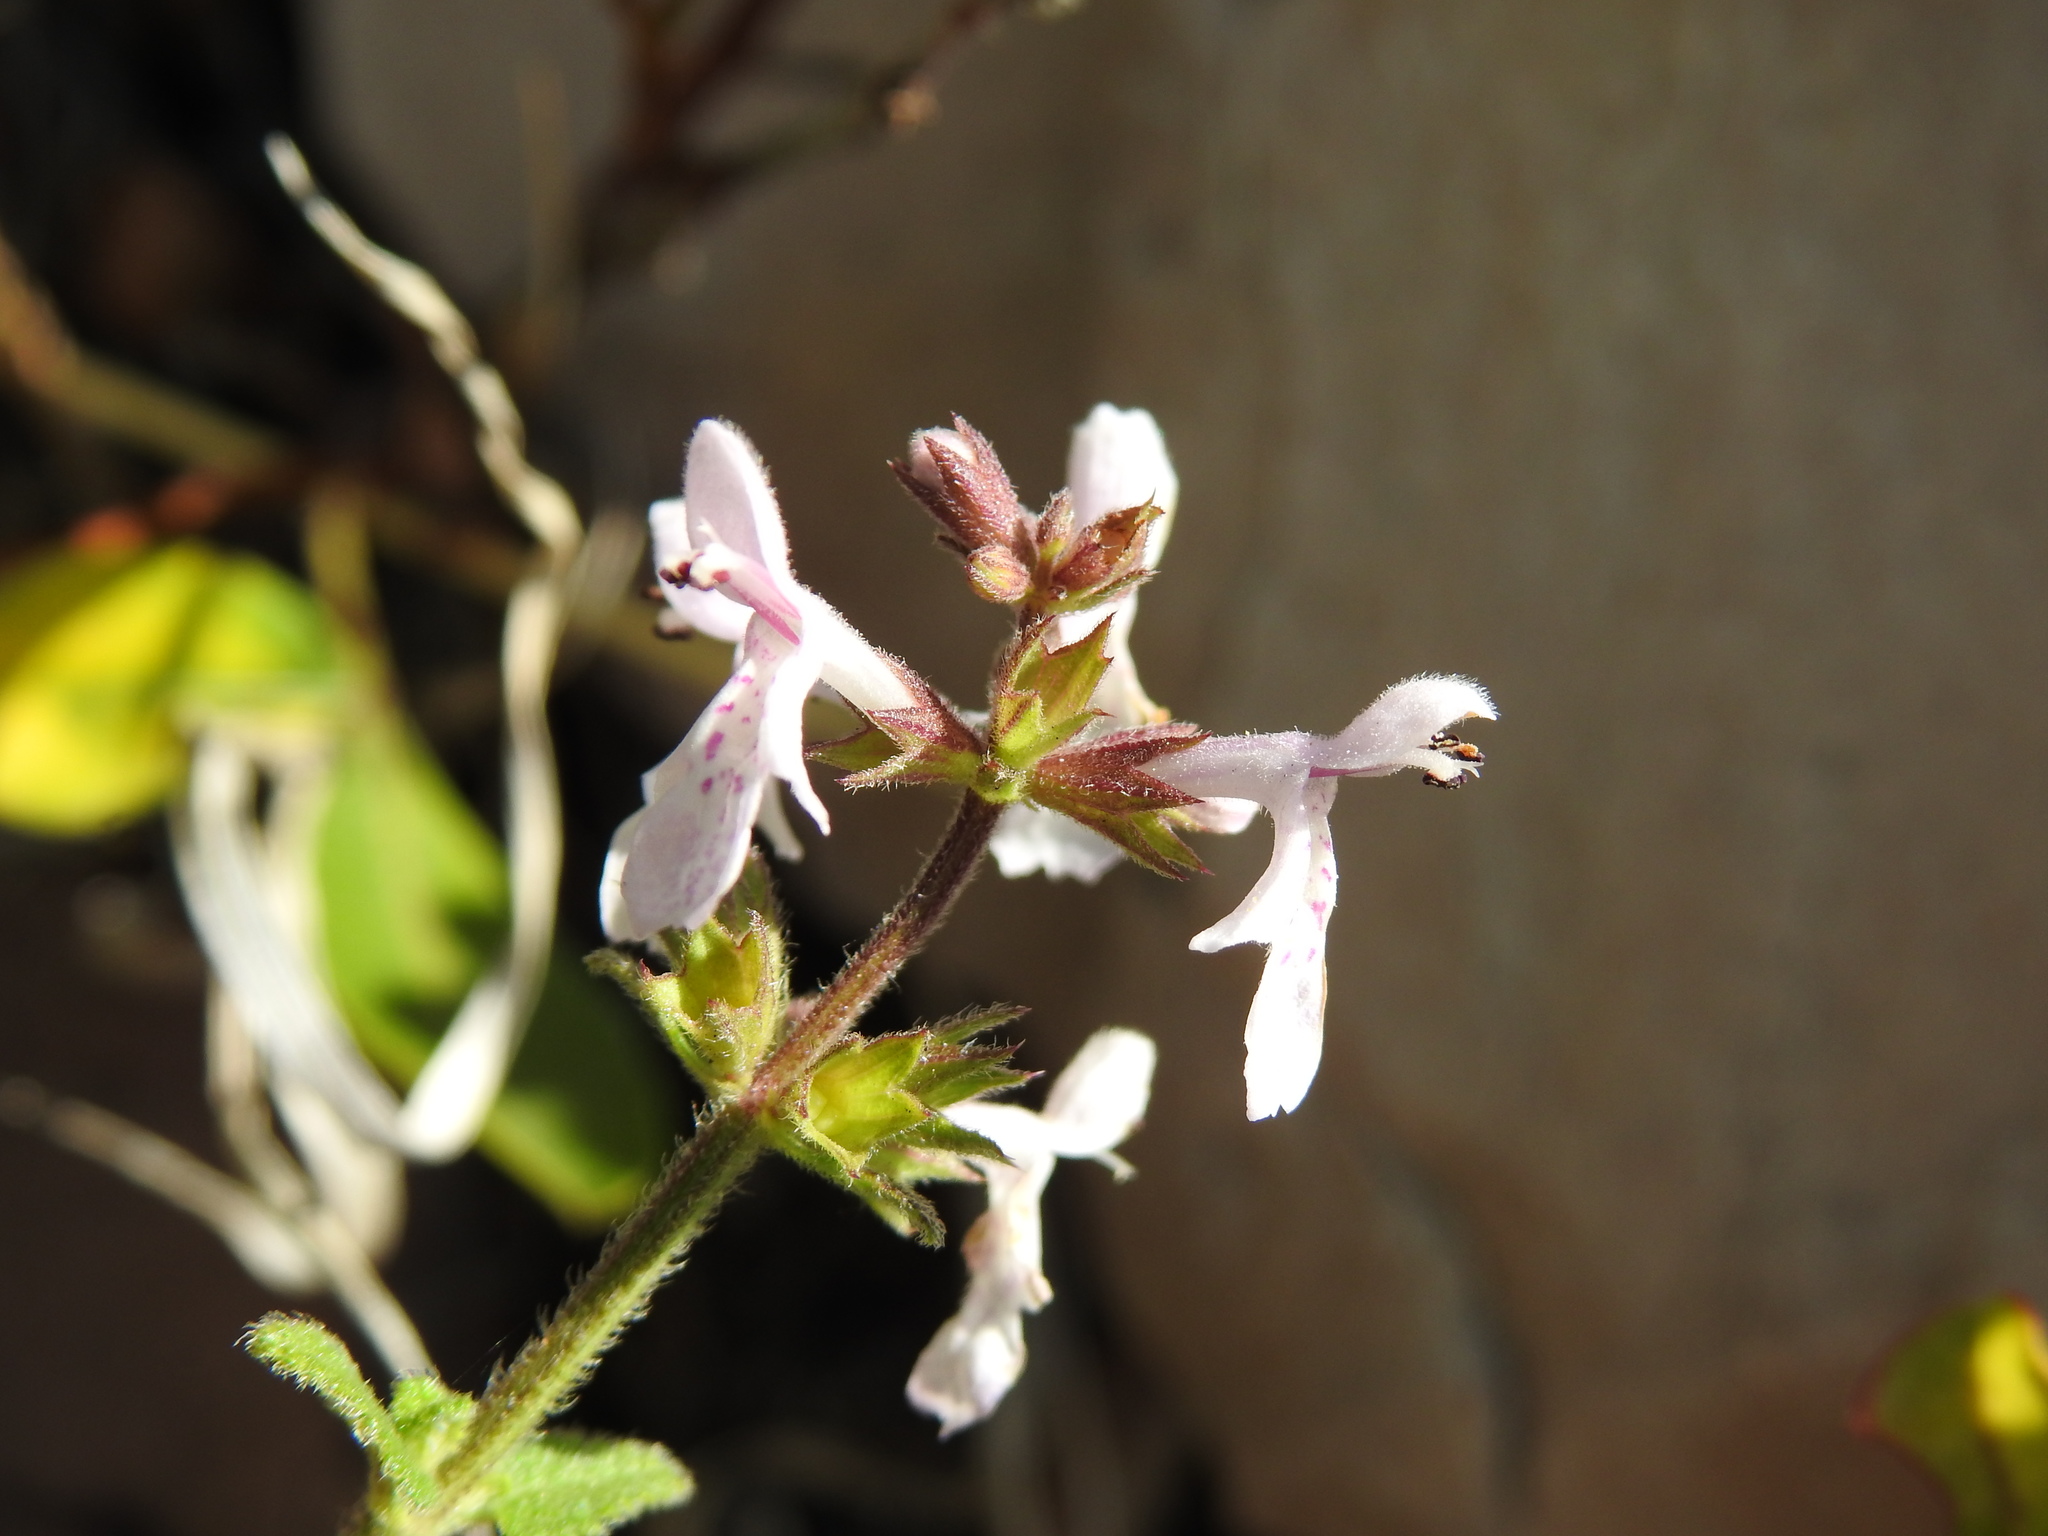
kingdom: Plantae
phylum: Tracheophyta
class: Magnoliopsida
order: Lamiales
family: Lamiaceae
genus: Stachys
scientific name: Stachys aethiopica
